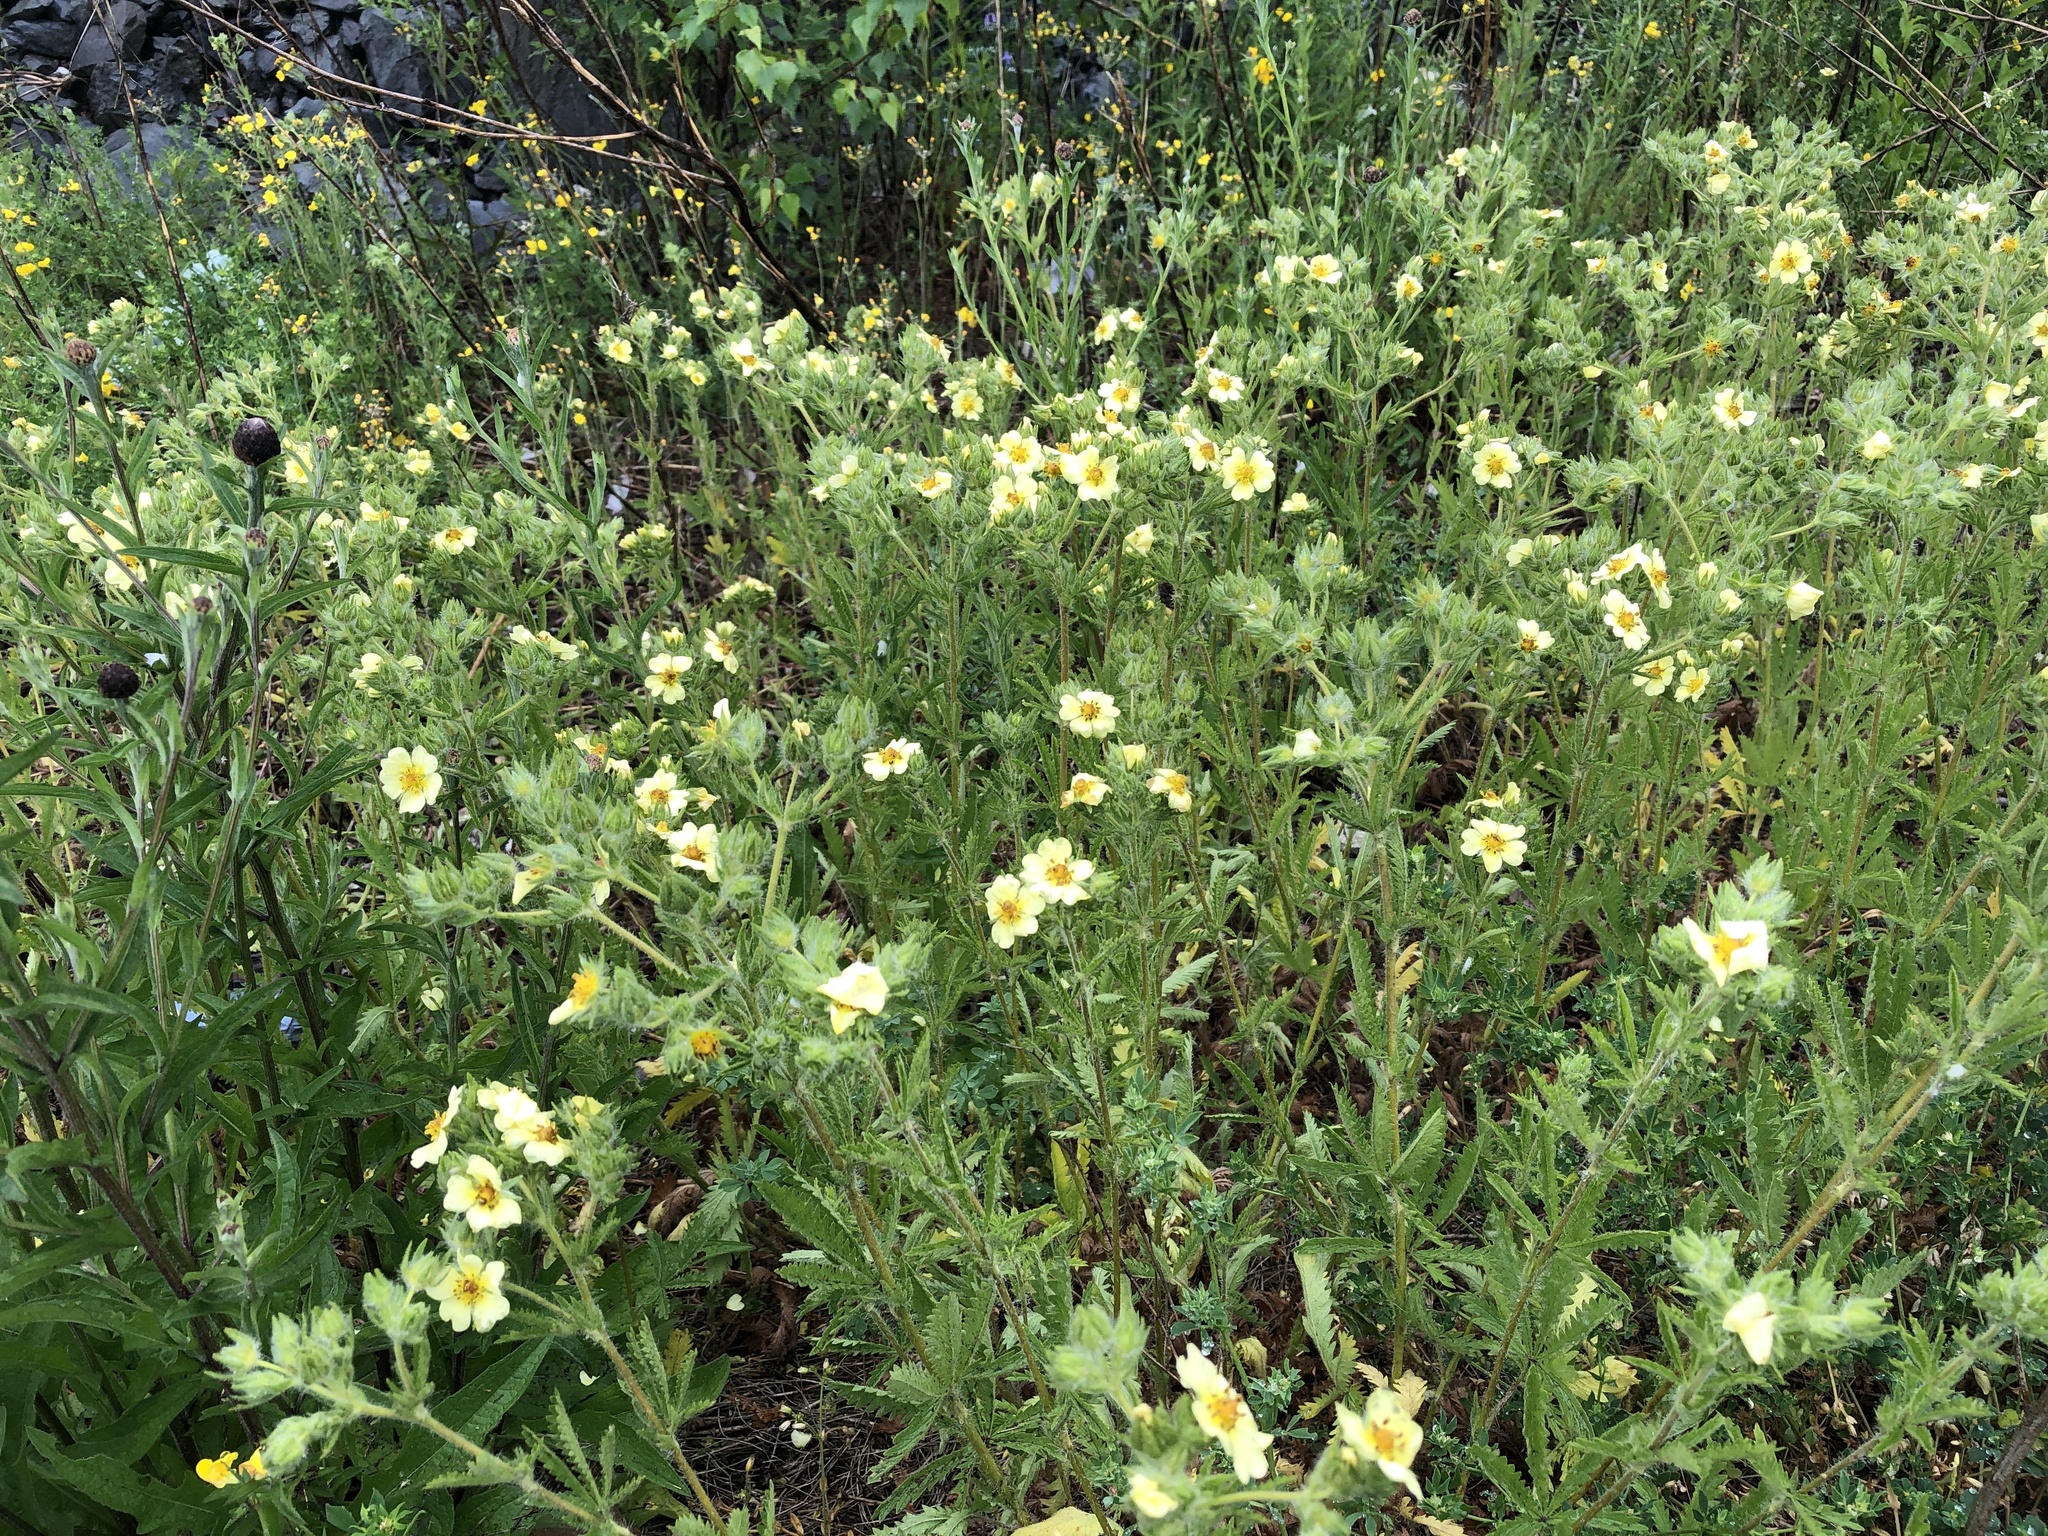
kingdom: Plantae
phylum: Tracheophyta
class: Magnoliopsida
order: Rosales
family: Rosaceae
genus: Potentilla
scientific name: Potentilla recta
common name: Sulphur cinquefoil
